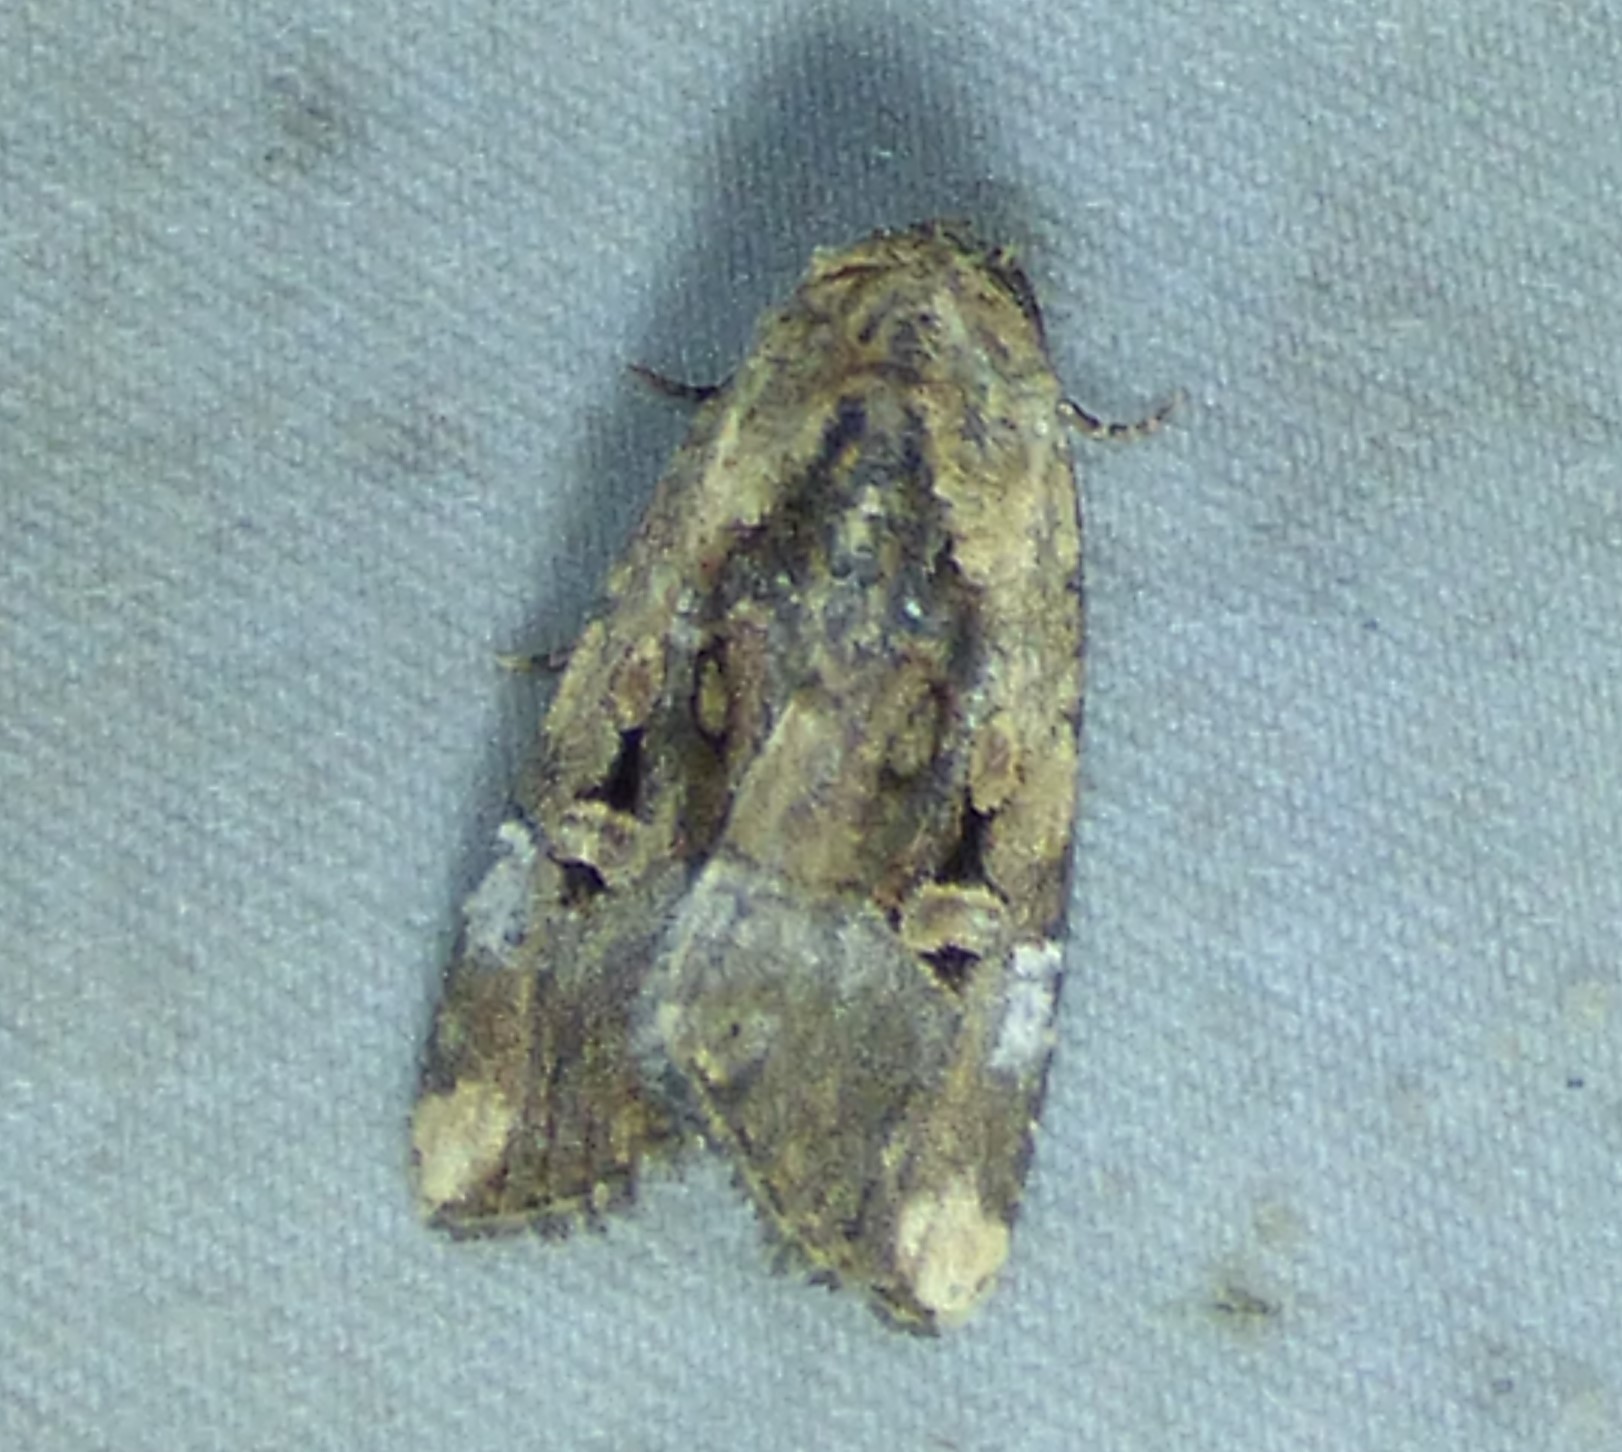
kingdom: Animalia
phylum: Arthropoda
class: Insecta
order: Lepidoptera
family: Noctuidae
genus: Elaphria
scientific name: Elaphria chalcedonia
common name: Chalcedony midget
